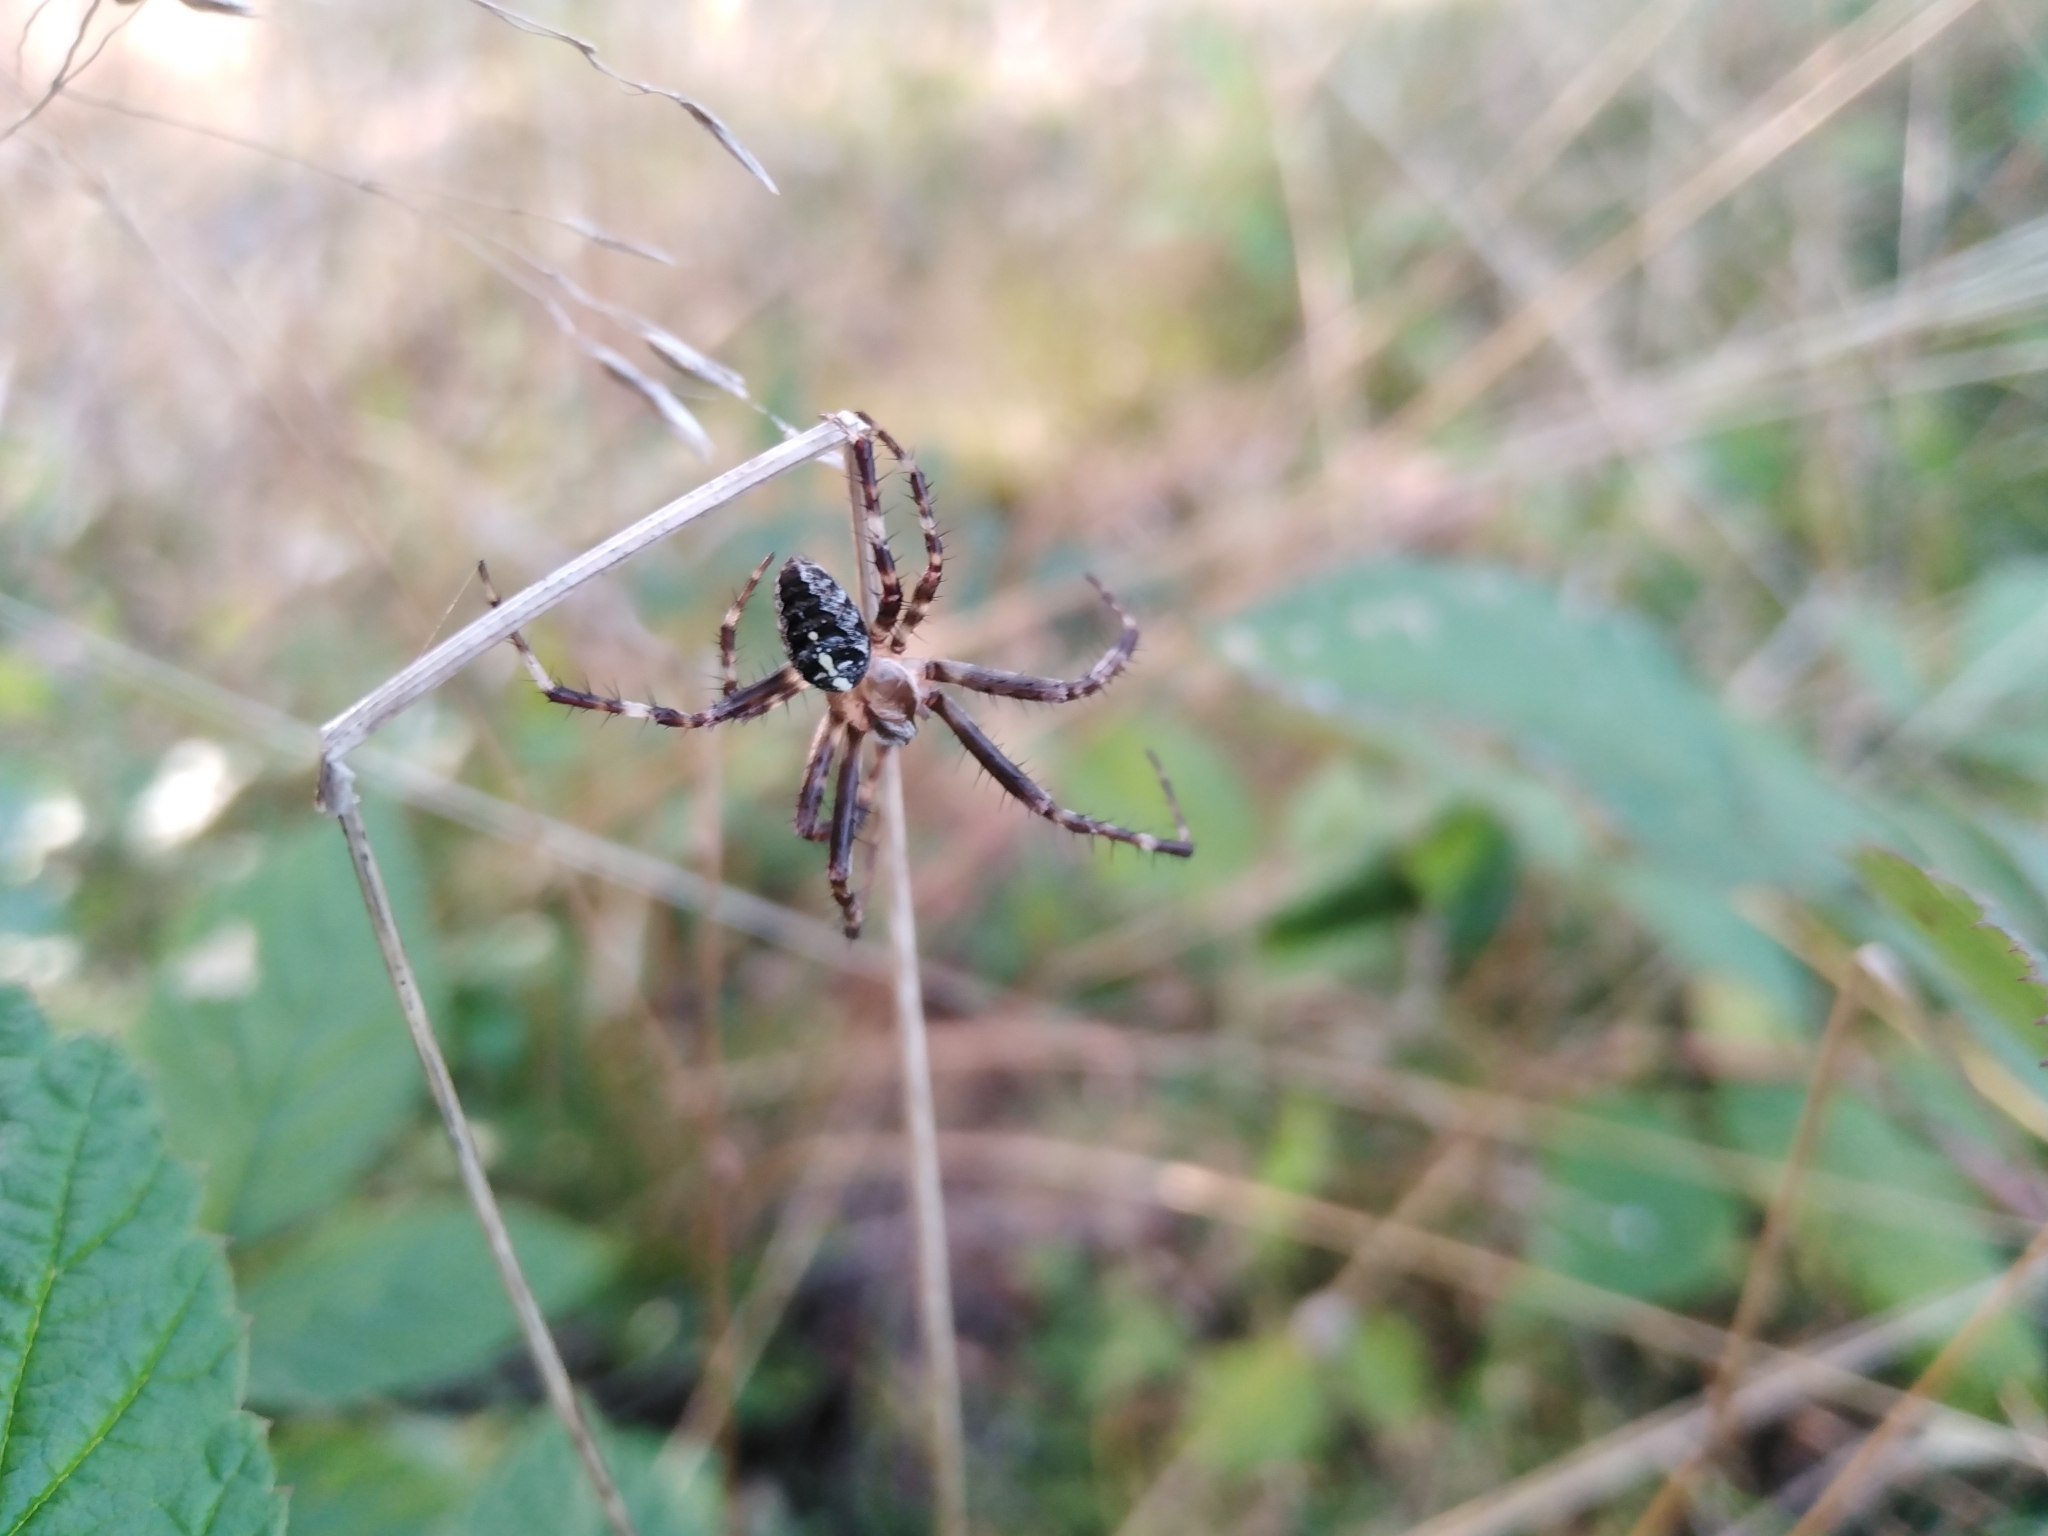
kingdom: Animalia
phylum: Arthropoda
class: Arachnida
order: Araneae
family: Araneidae
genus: Araneus
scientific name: Araneus diadematus
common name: Cross orbweaver
